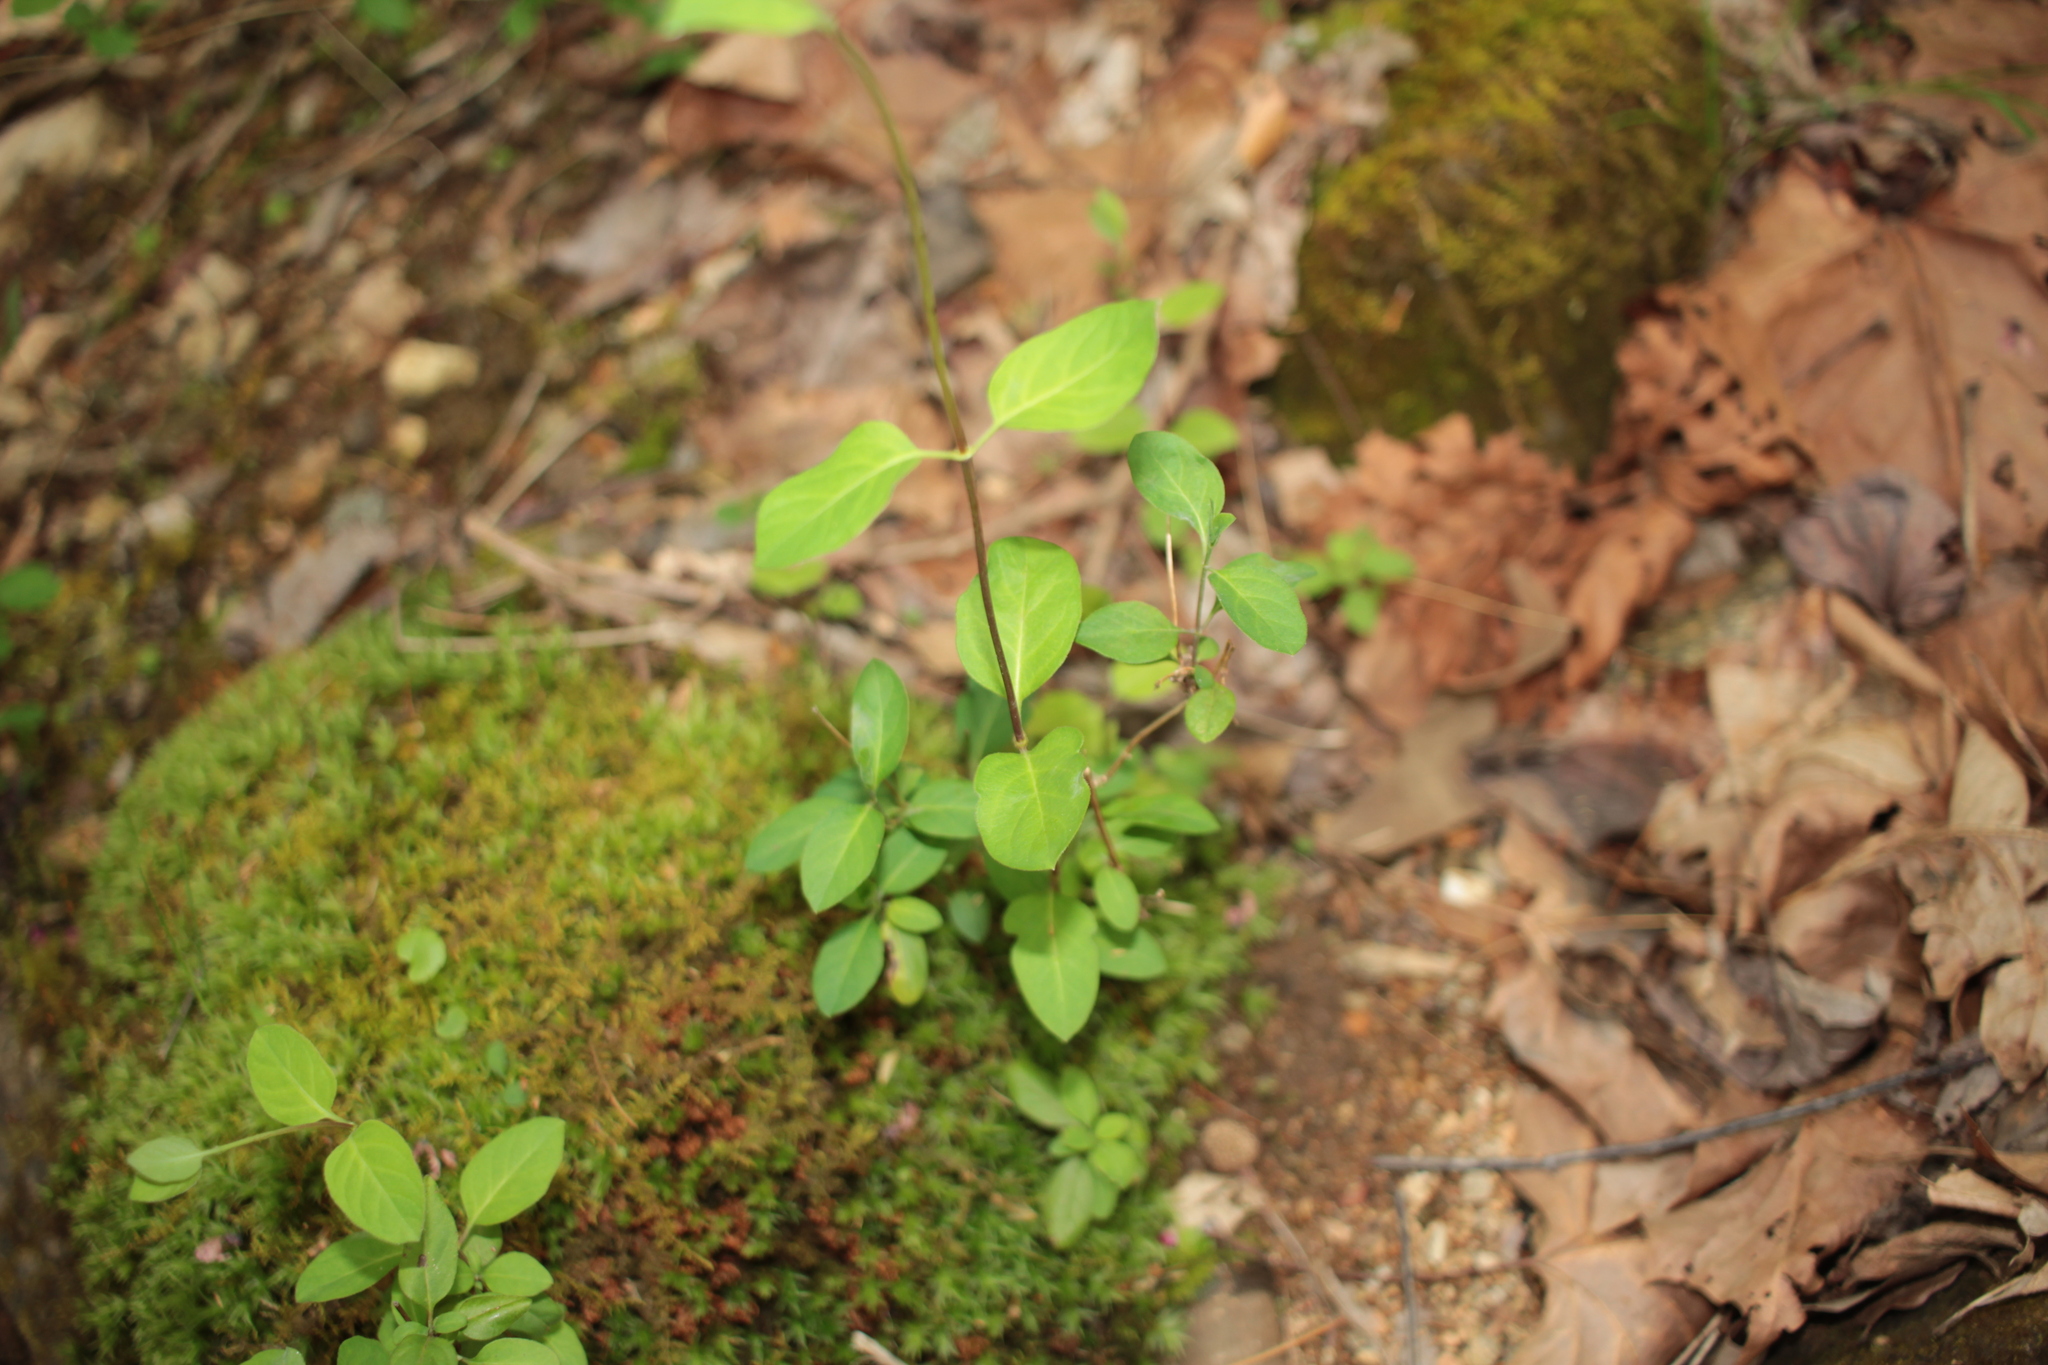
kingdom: Plantae
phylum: Tracheophyta
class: Magnoliopsida
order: Dipsacales
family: Caprifoliaceae
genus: Lonicera
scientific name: Lonicera japonica
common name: Japanese honeysuckle
